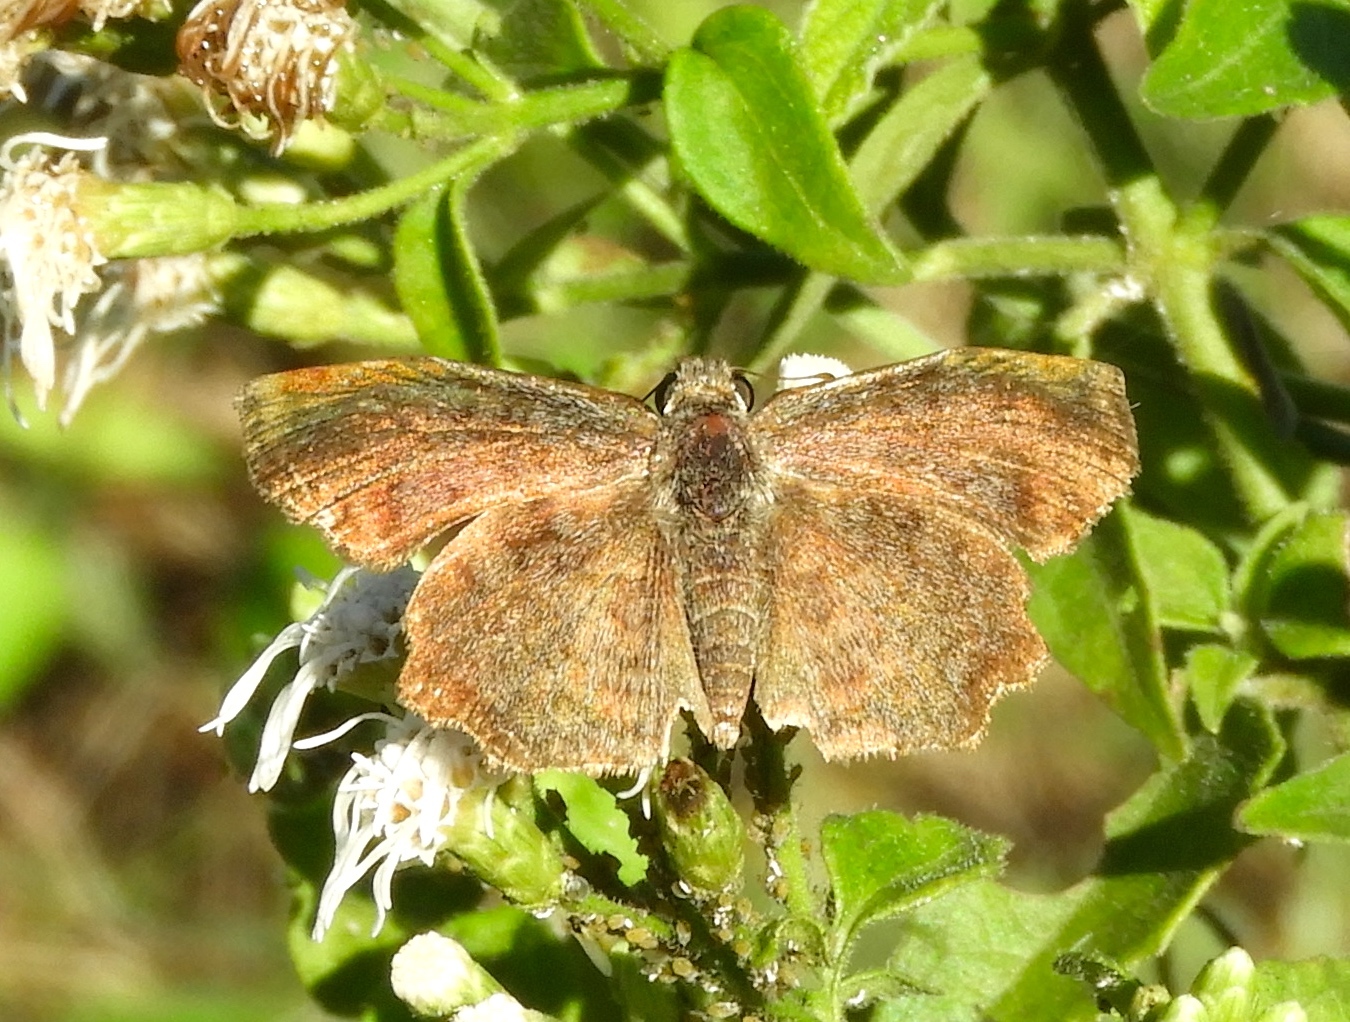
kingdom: Animalia
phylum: Arthropoda
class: Insecta
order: Lepidoptera
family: Hesperiidae
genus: Antigonus
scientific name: Antigonus erosus
